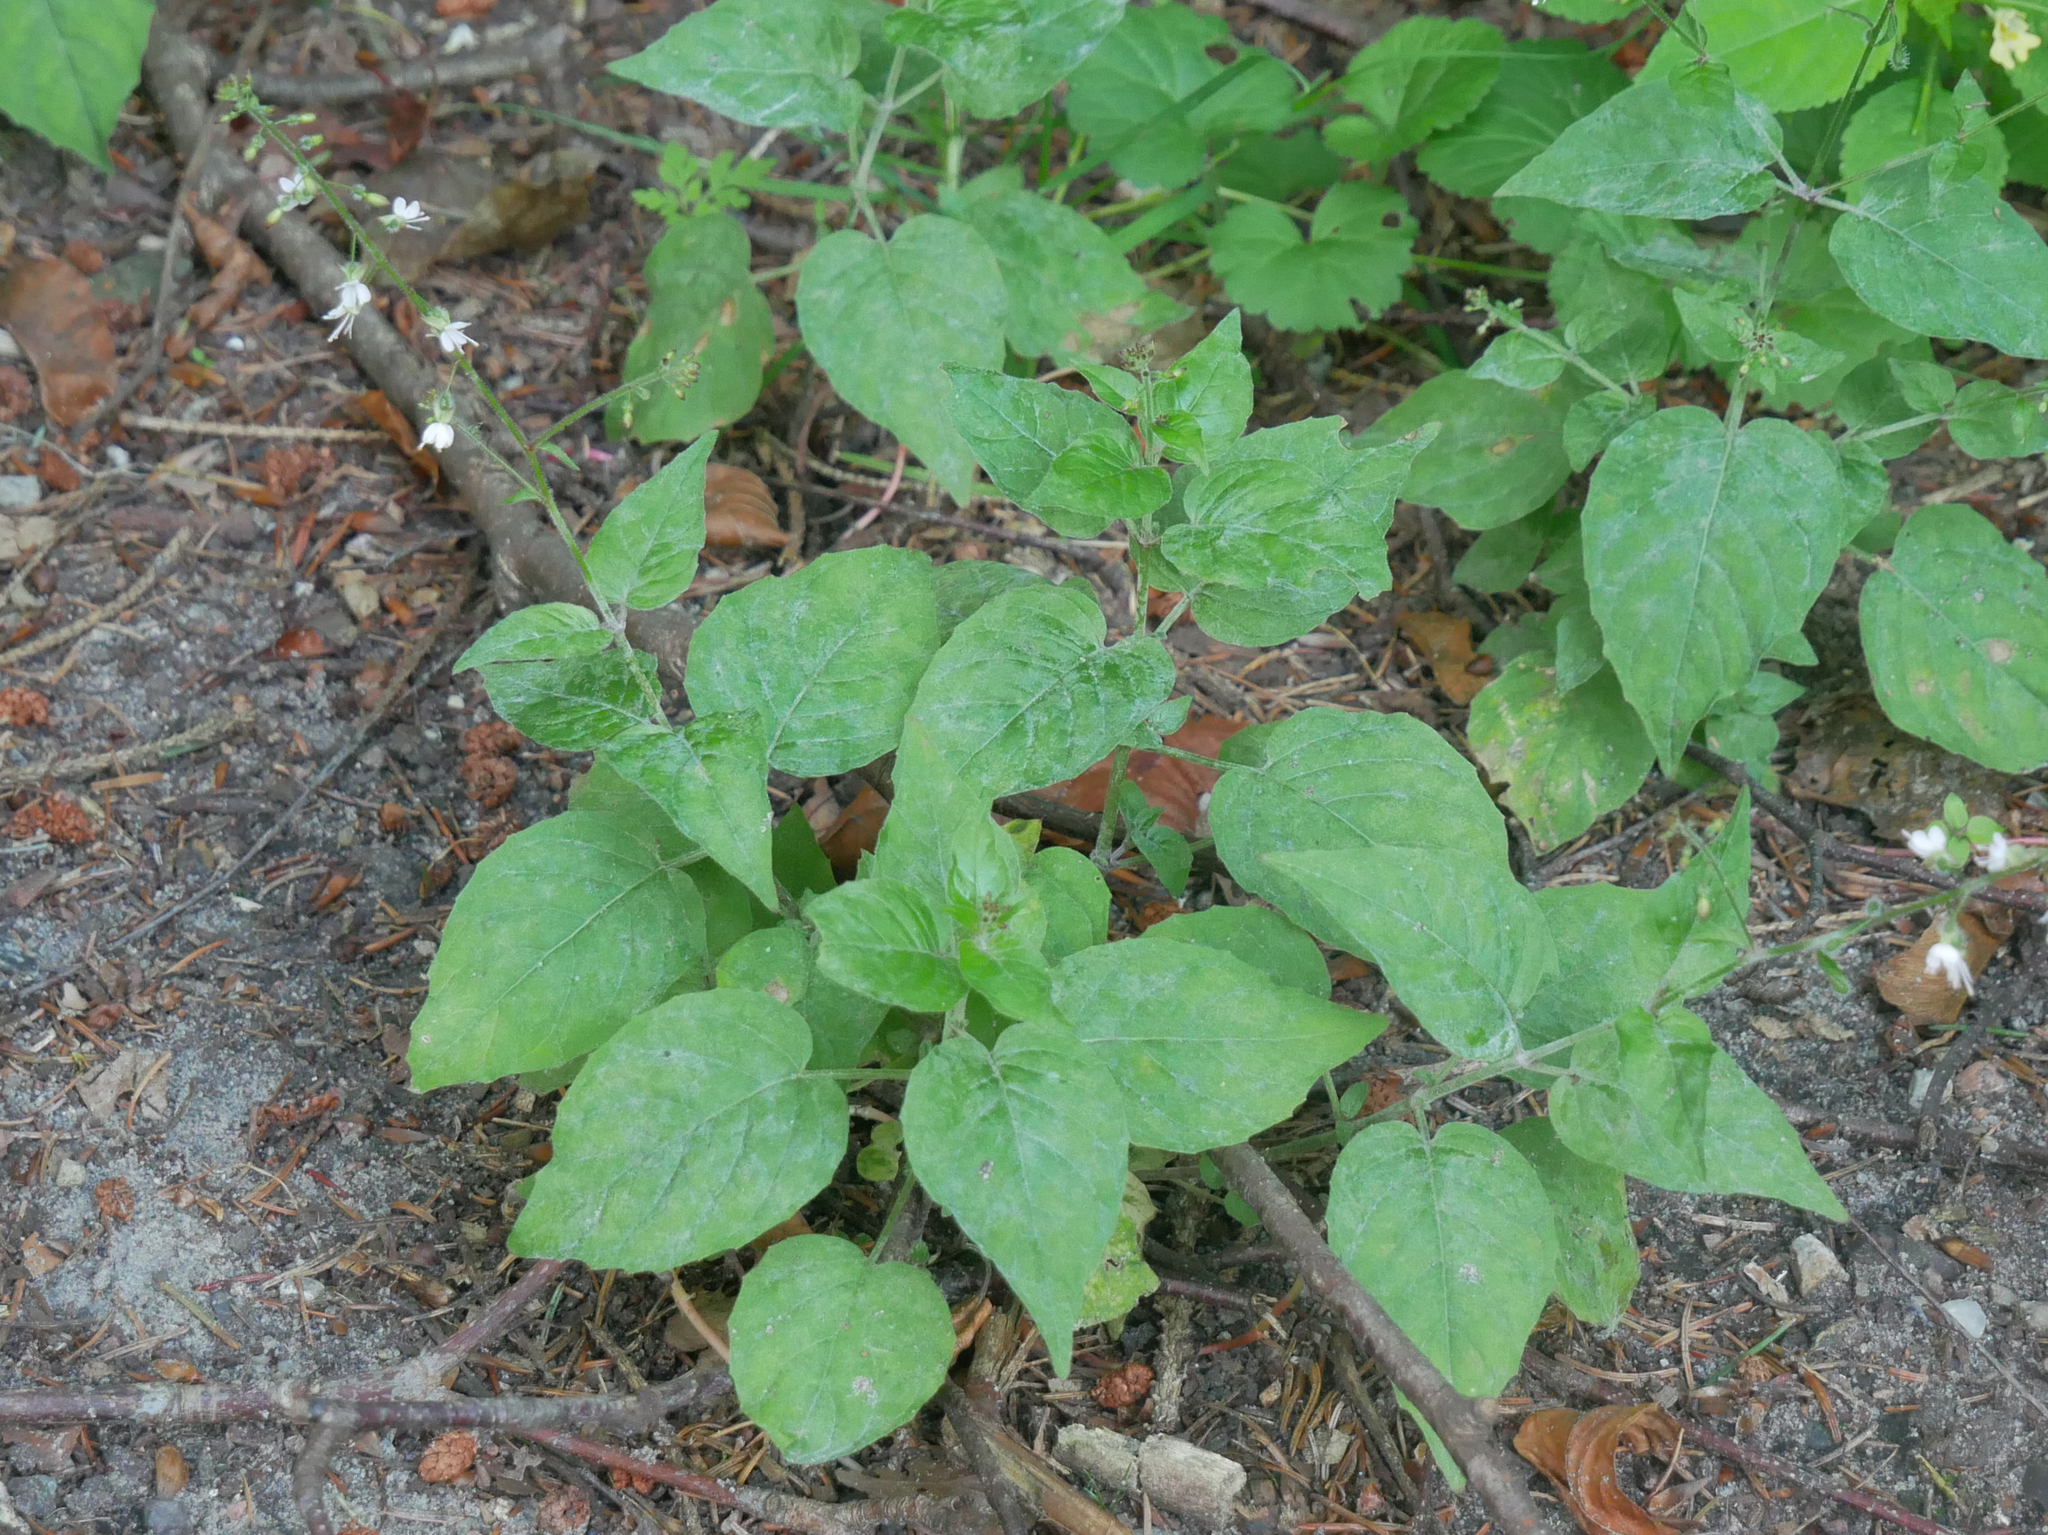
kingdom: Plantae
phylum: Tracheophyta
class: Magnoliopsida
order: Myrtales
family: Onagraceae
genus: Circaea
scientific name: Circaea lutetiana
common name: Enchanter's-nightshade
